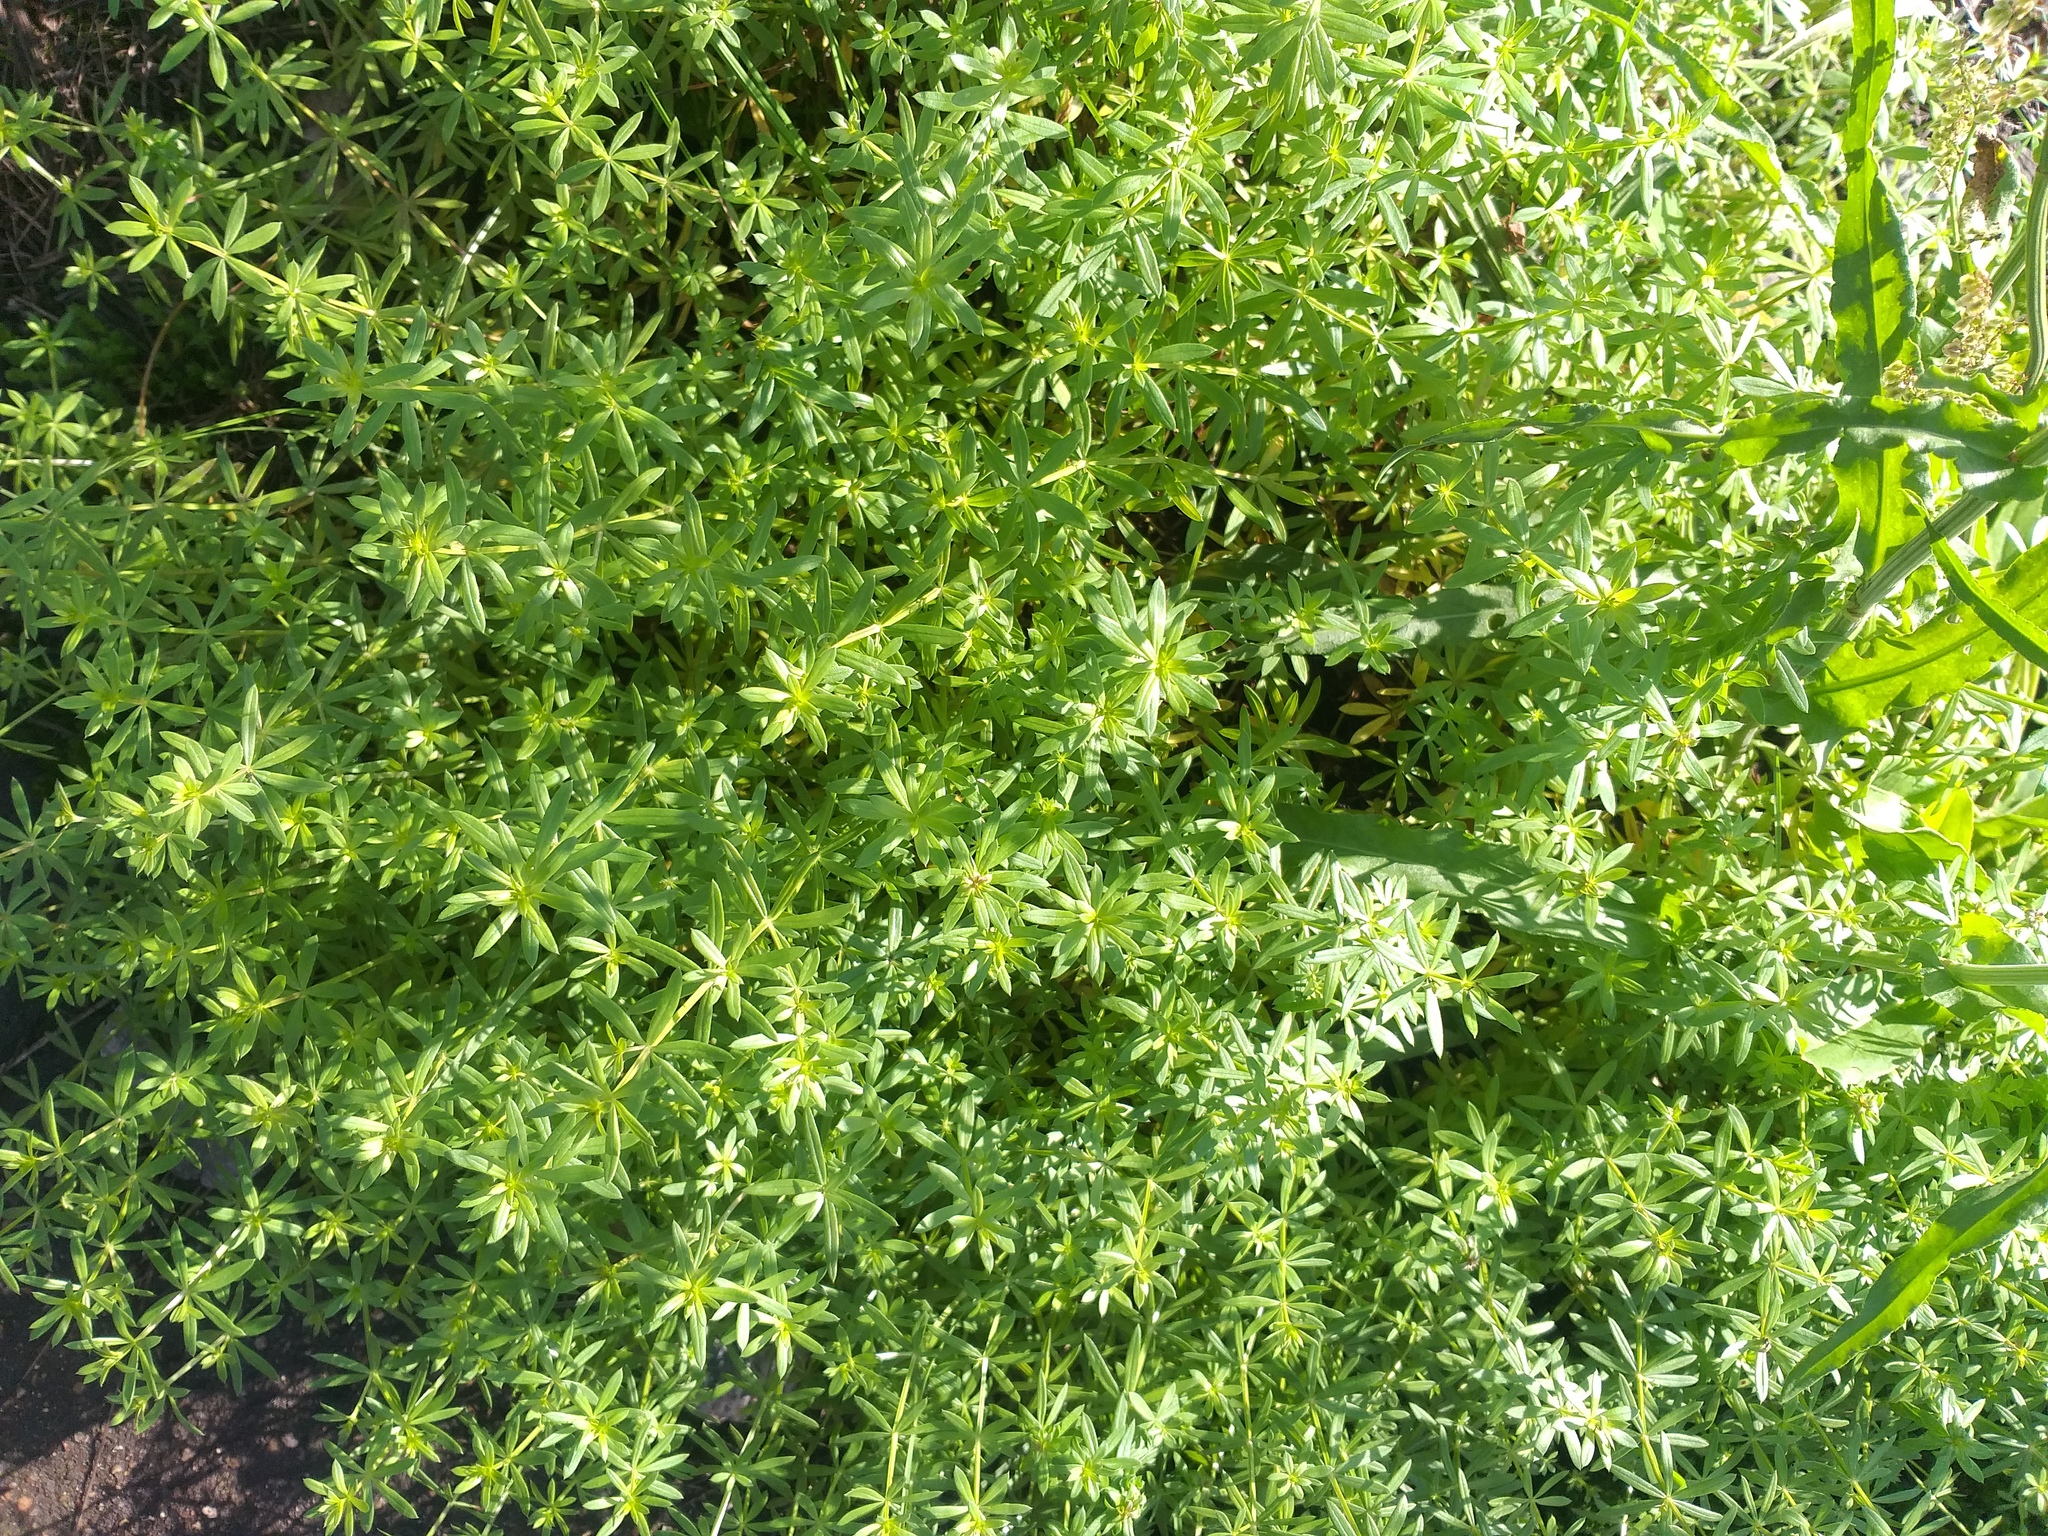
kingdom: Plantae
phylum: Tracheophyta
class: Magnoliopsida
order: Gentianales
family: Rubiaceae
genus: Galium
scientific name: Galium mollugo
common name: Hedge bedstraw
